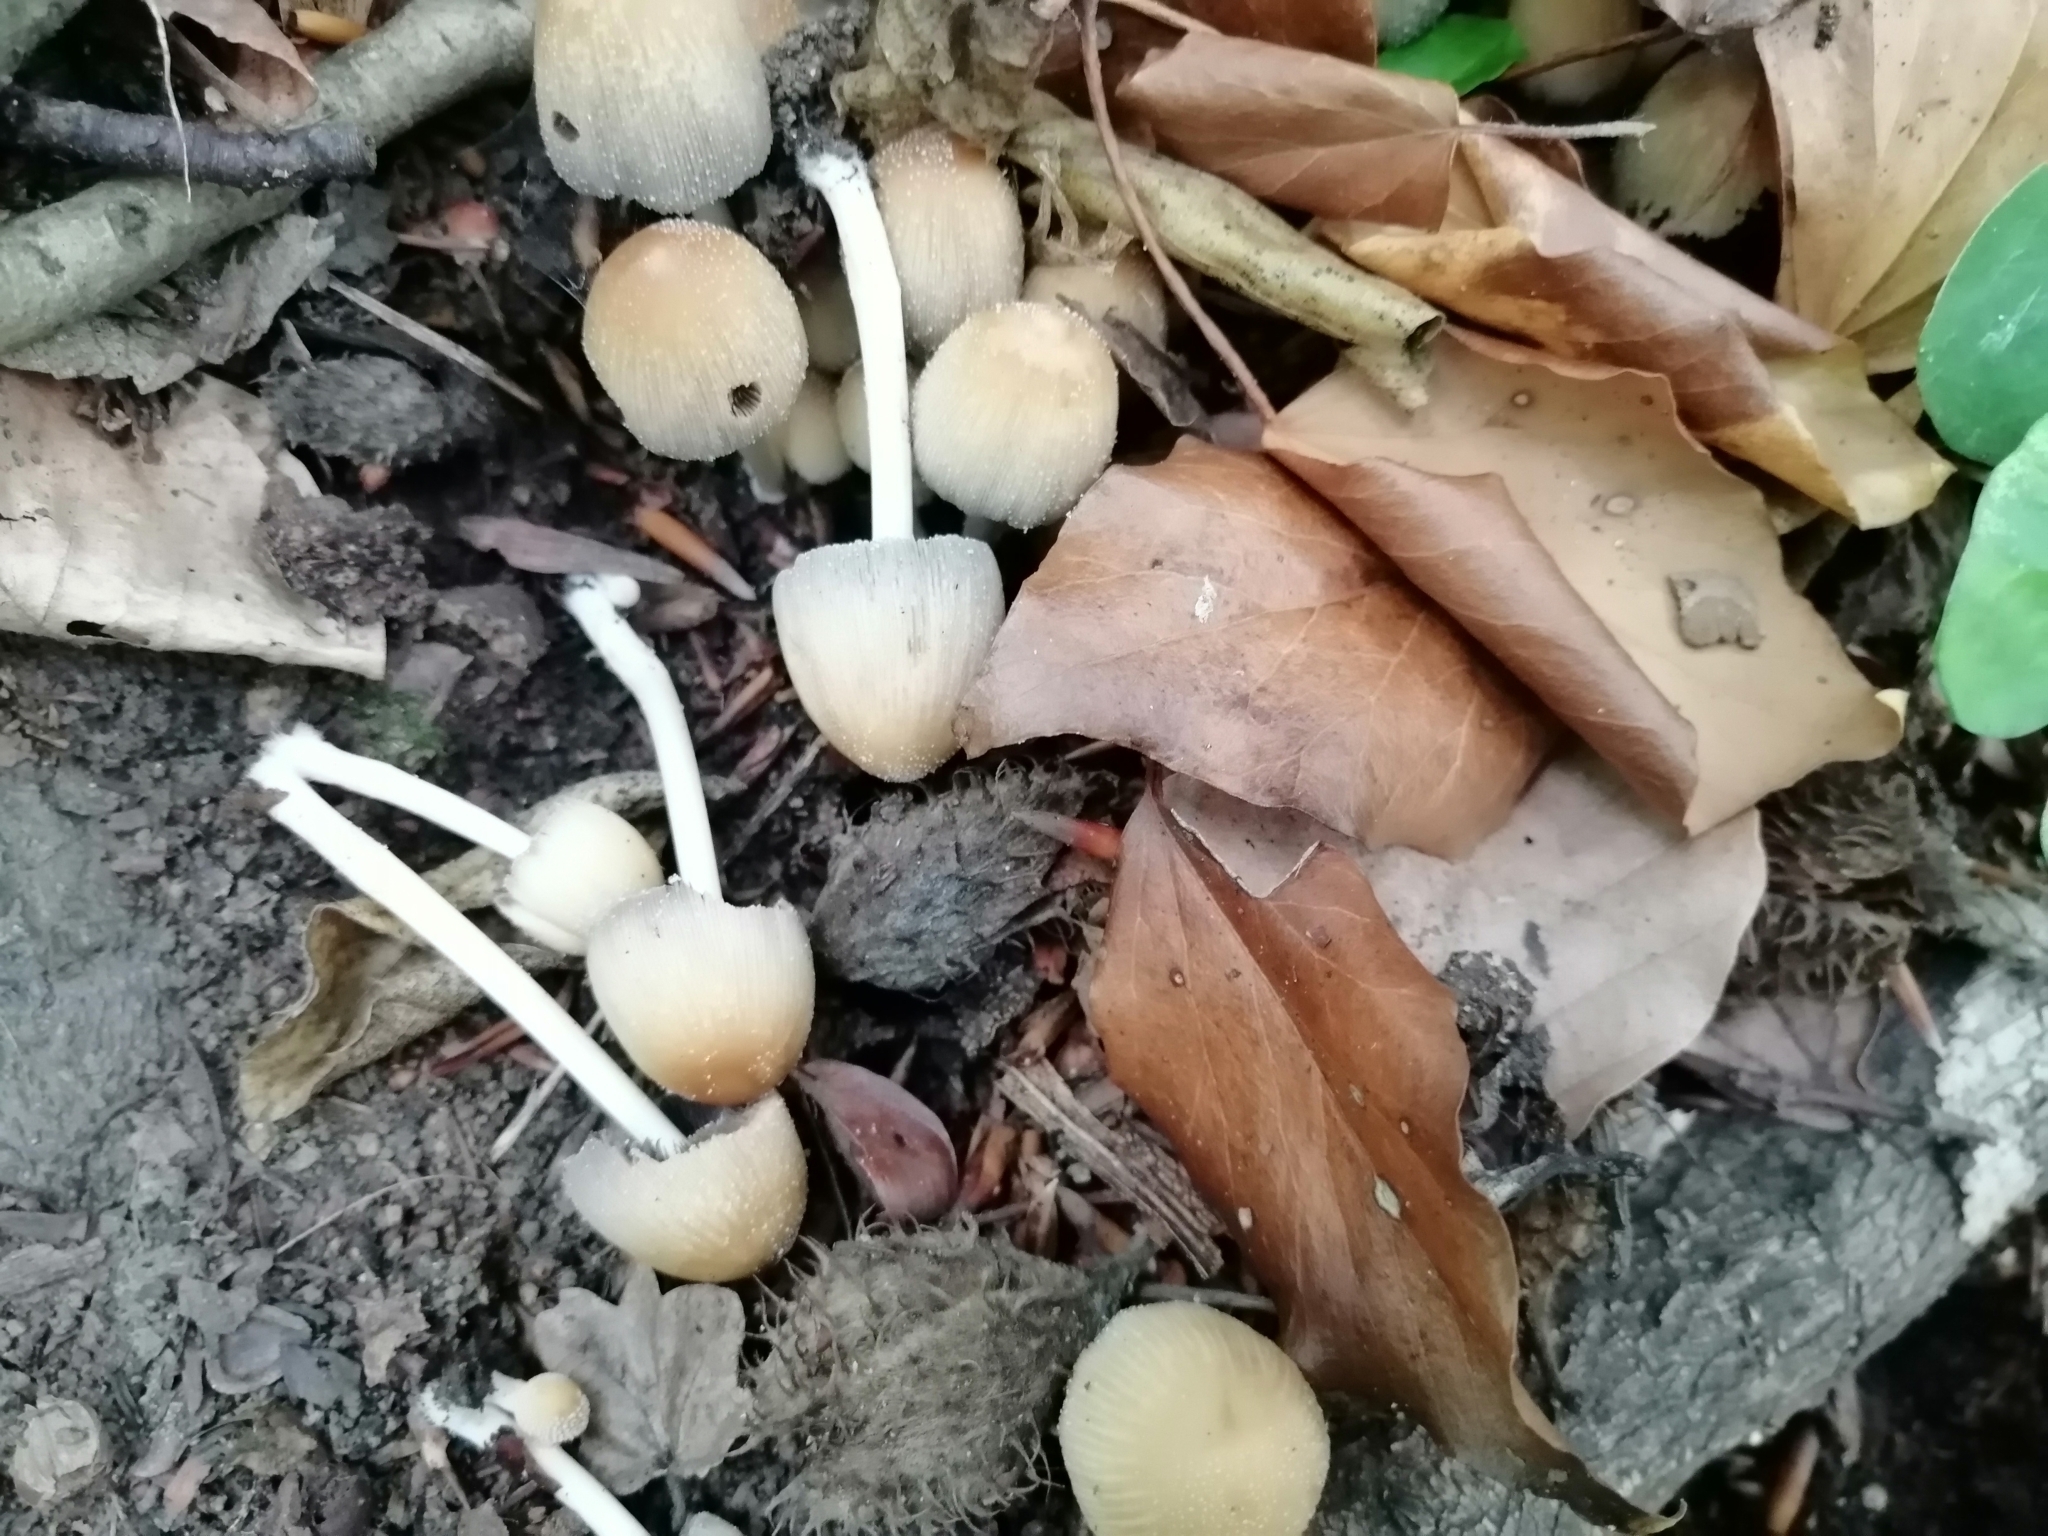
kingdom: Fungi
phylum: Basidiomycota
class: Agaricomycetes
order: Agaricales
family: Psathyrellaceae
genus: Coprinellus
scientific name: Coprinellus silvaticus
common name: Woodland inkcap
